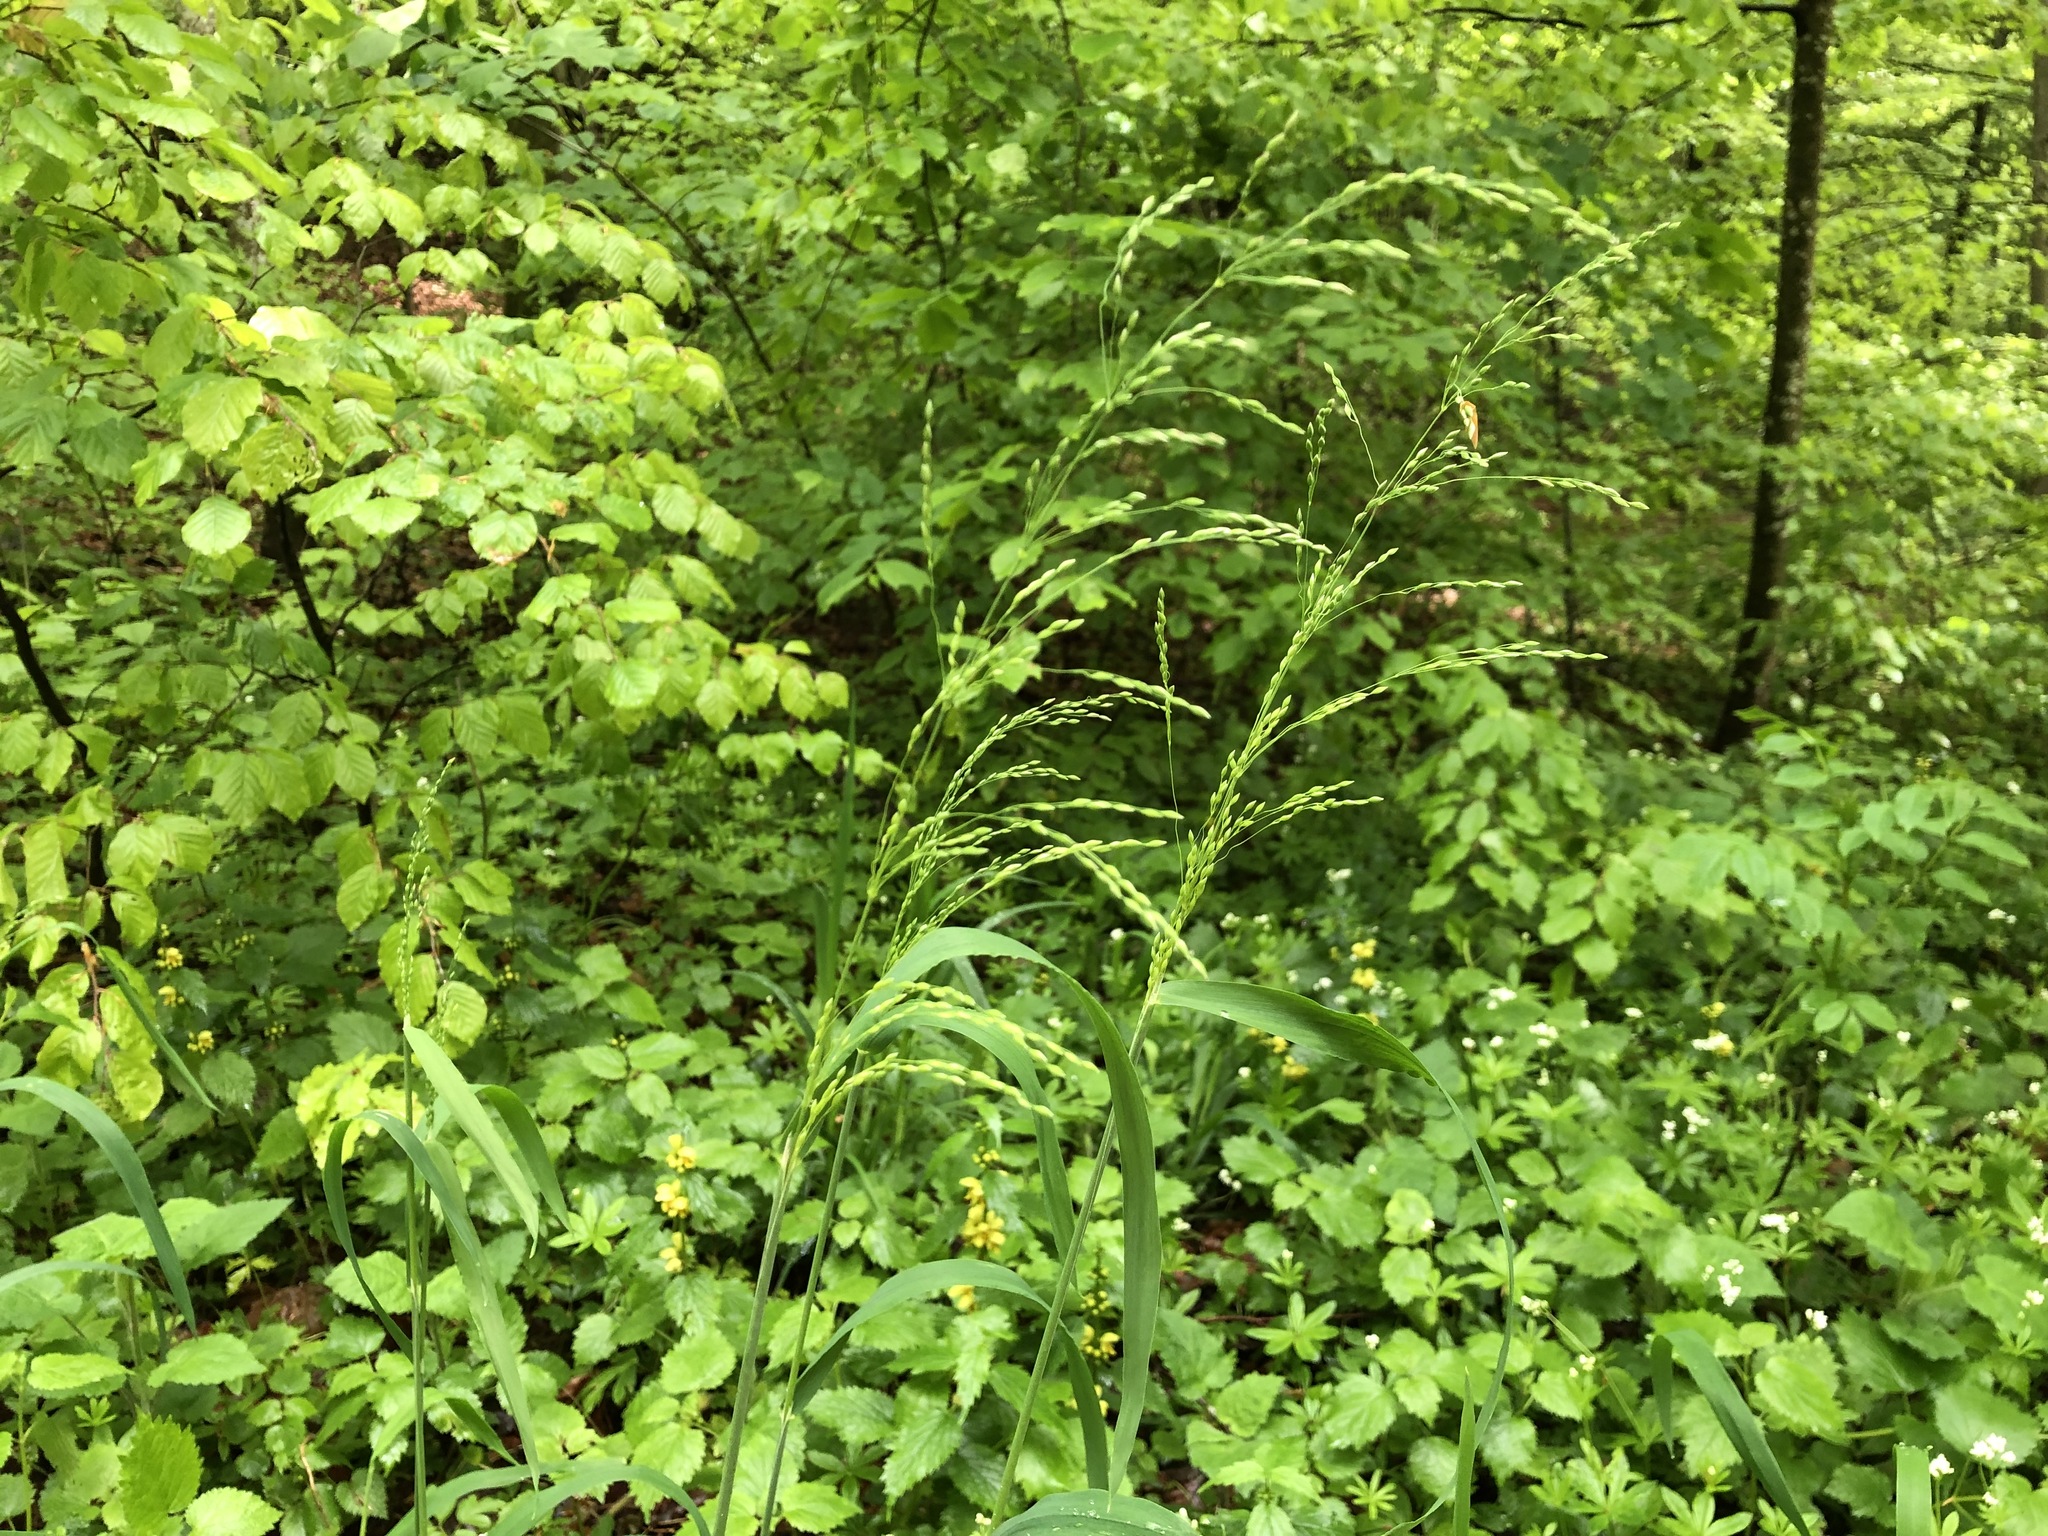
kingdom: Plantae
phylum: Tracheophyta
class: Liliopsida
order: Poales
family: Poaceae
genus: Milium
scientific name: Milium effusum
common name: Wood millet
